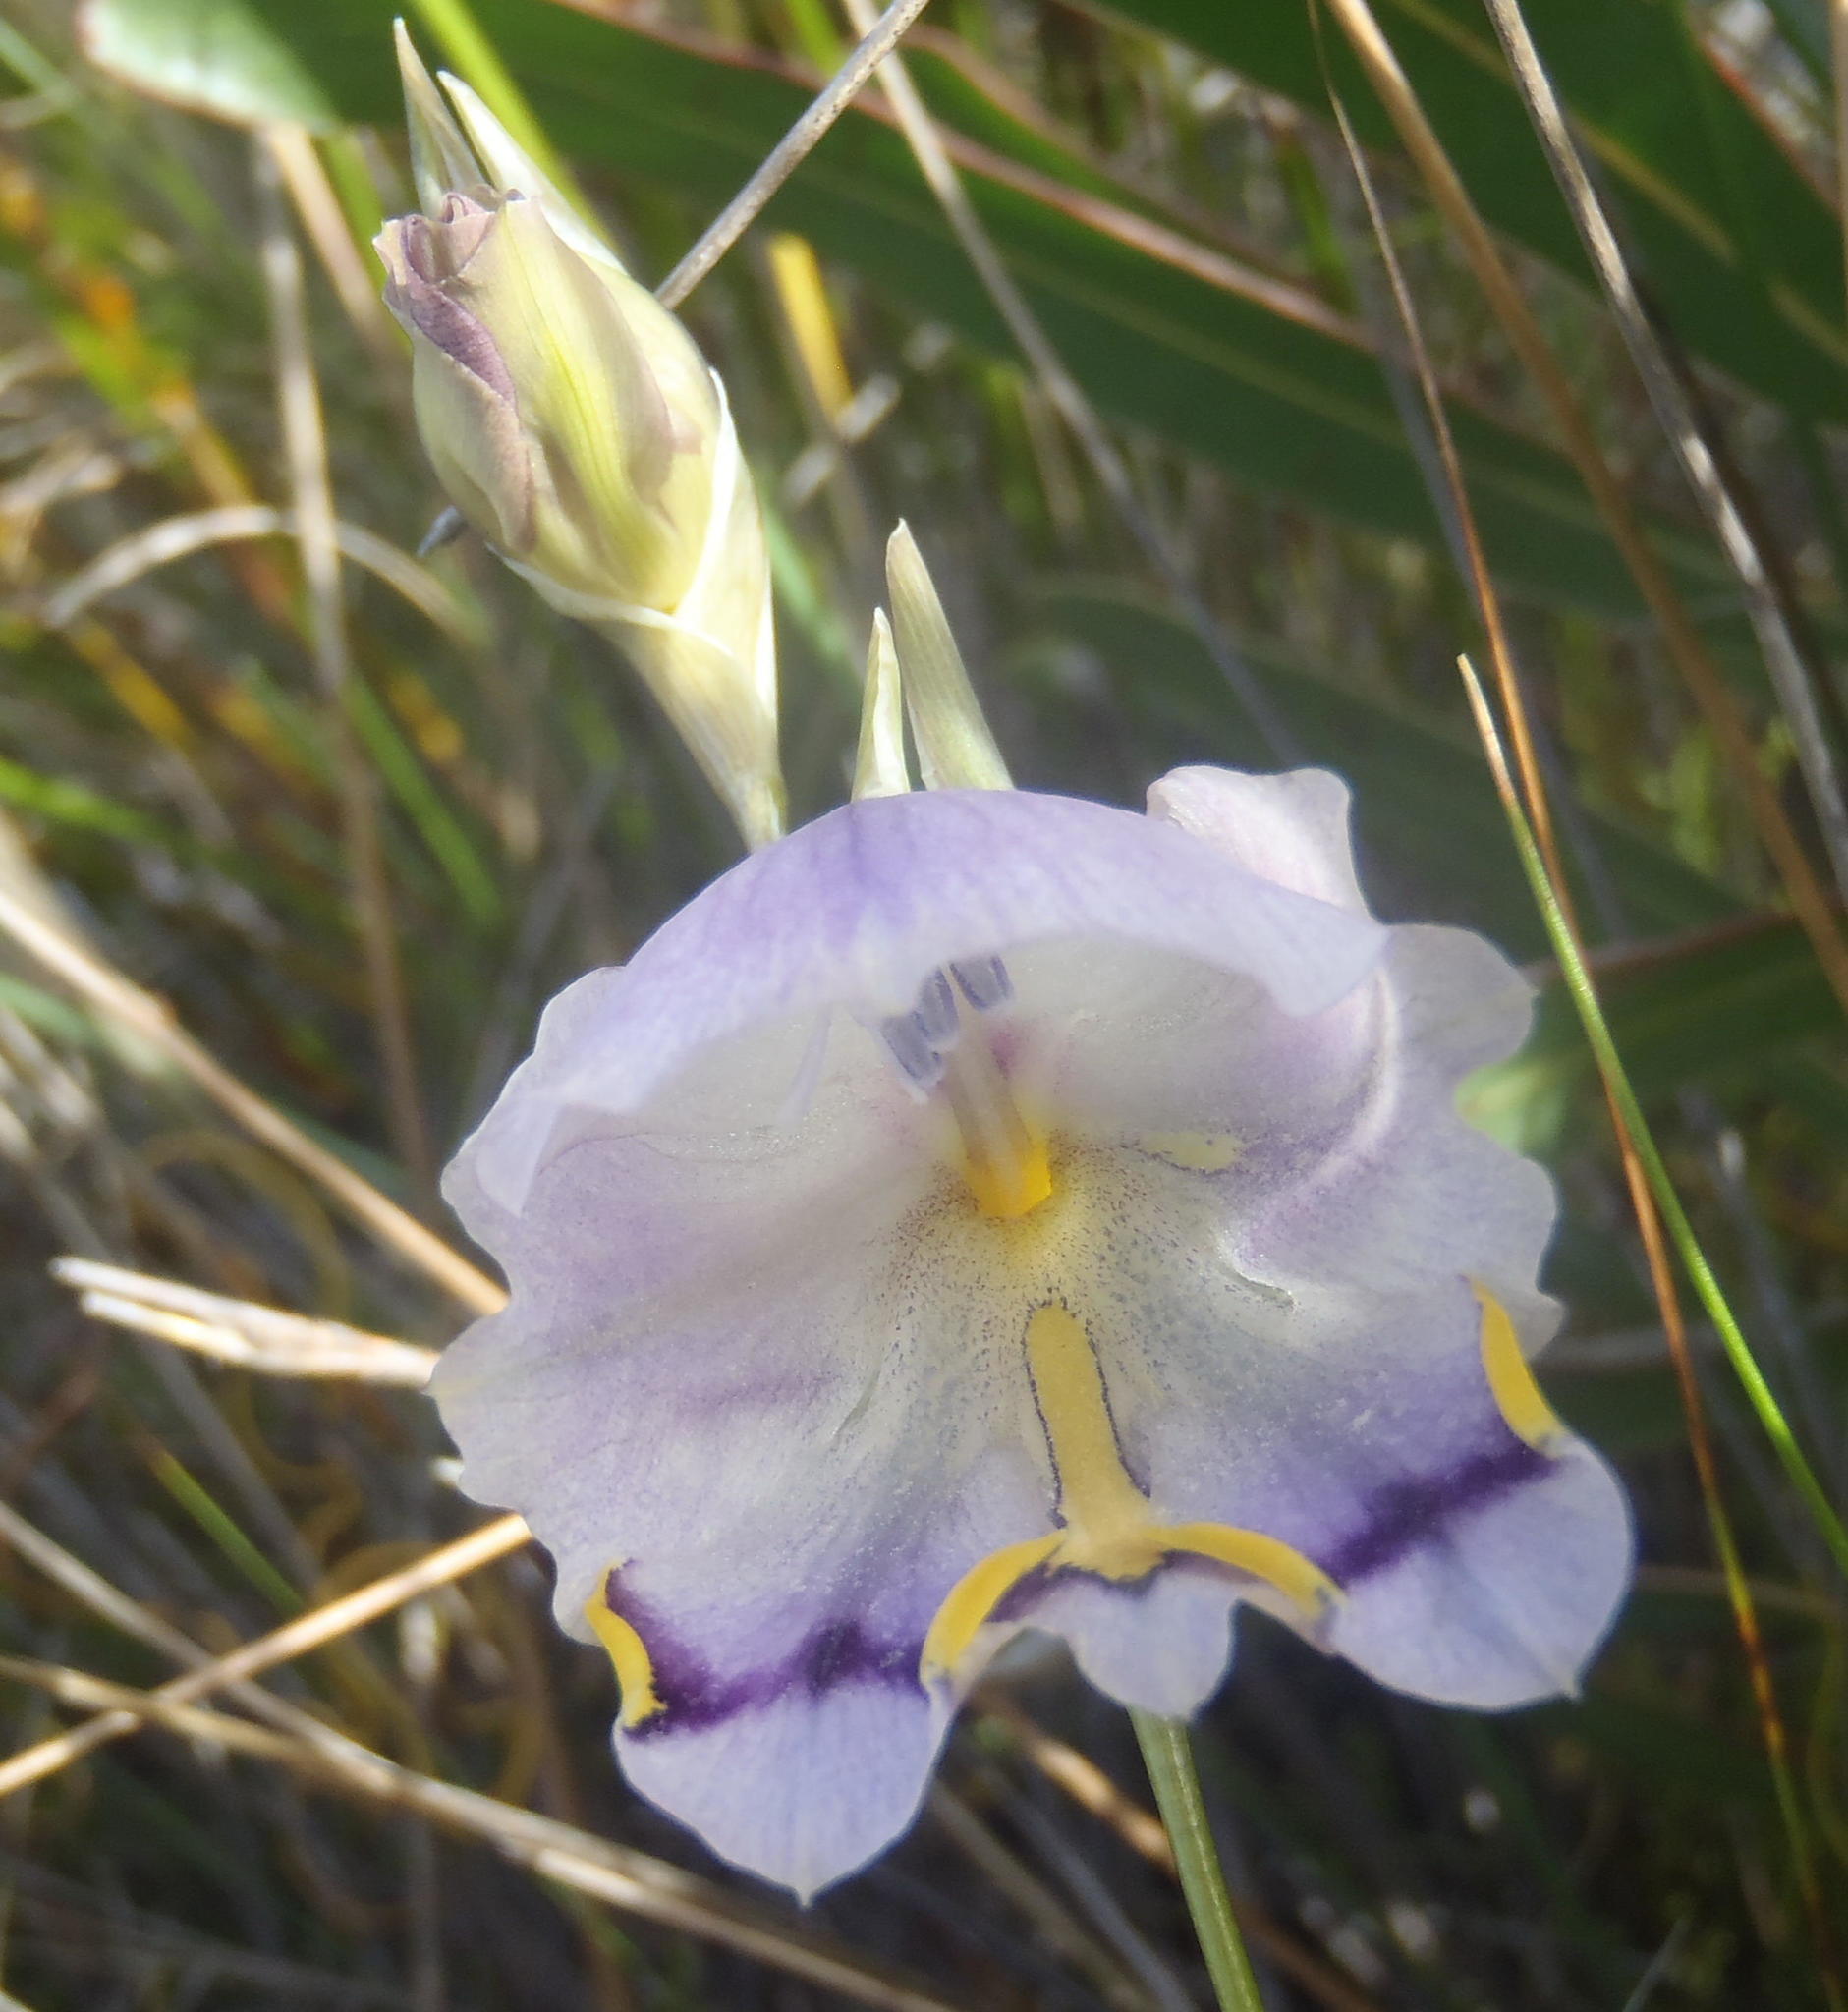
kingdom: Plantae
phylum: Tracheophyta
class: Liliopsida
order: Asparagales
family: Iridaceae
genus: Gladiolus
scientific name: Gladiolus patersoniae
